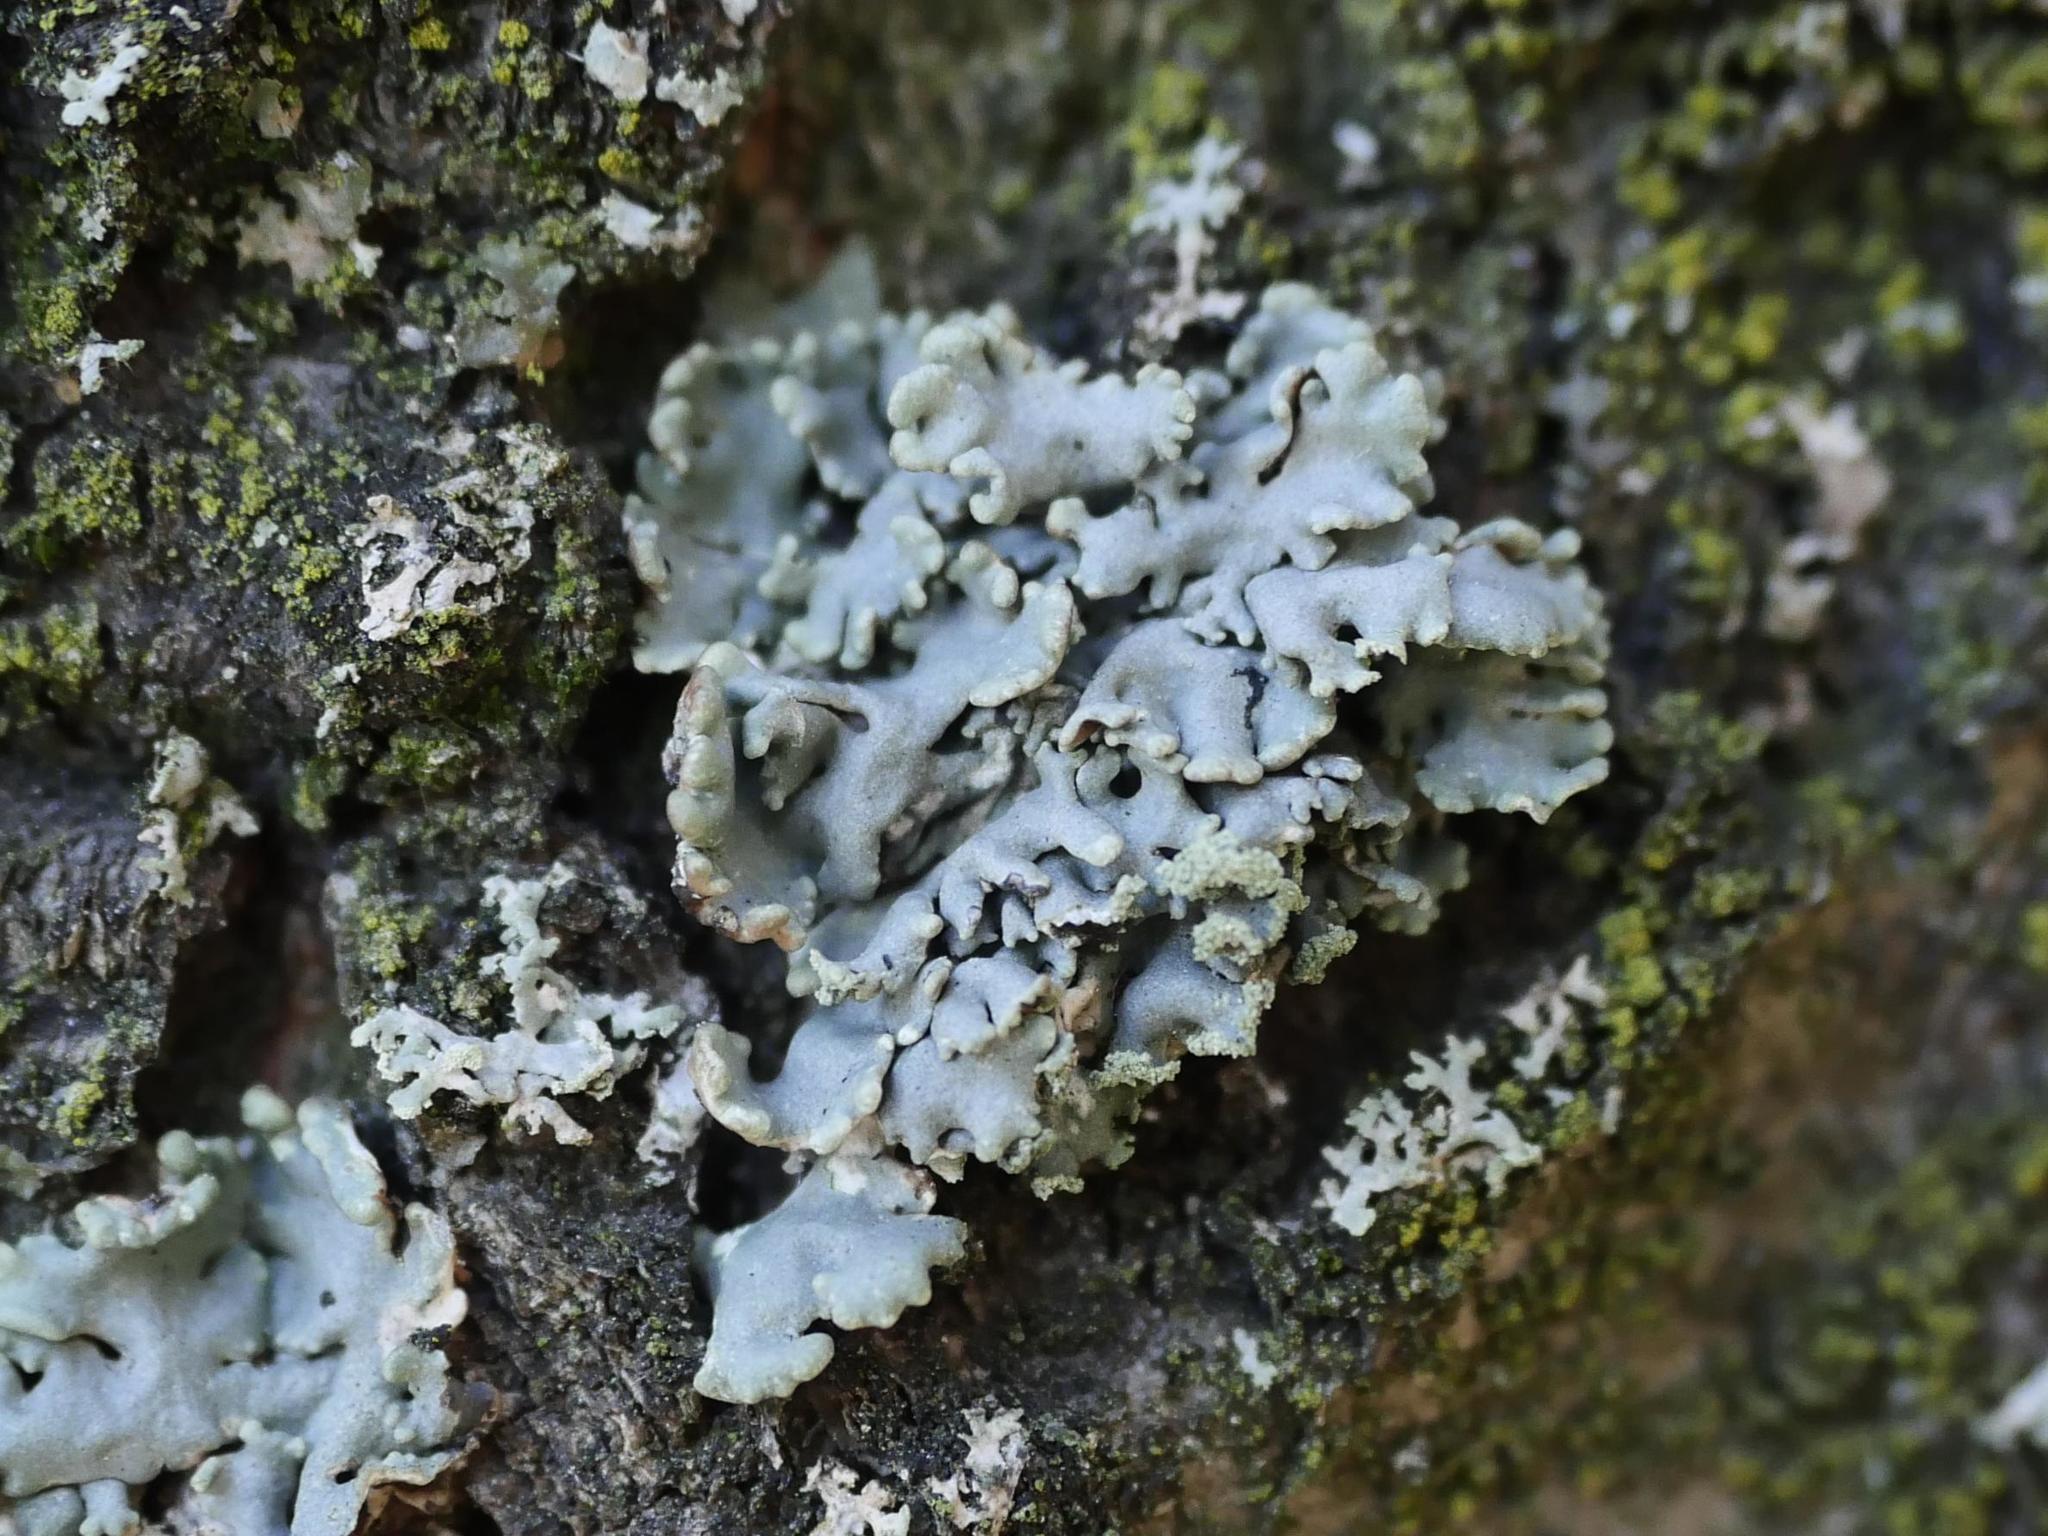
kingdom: Fungi
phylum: Ascomycota
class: Lecanoromycetes
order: Lecanorales
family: Parmeliaceae
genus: Hypogymnia
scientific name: Hypogymnia physodes
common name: Dark crottle
